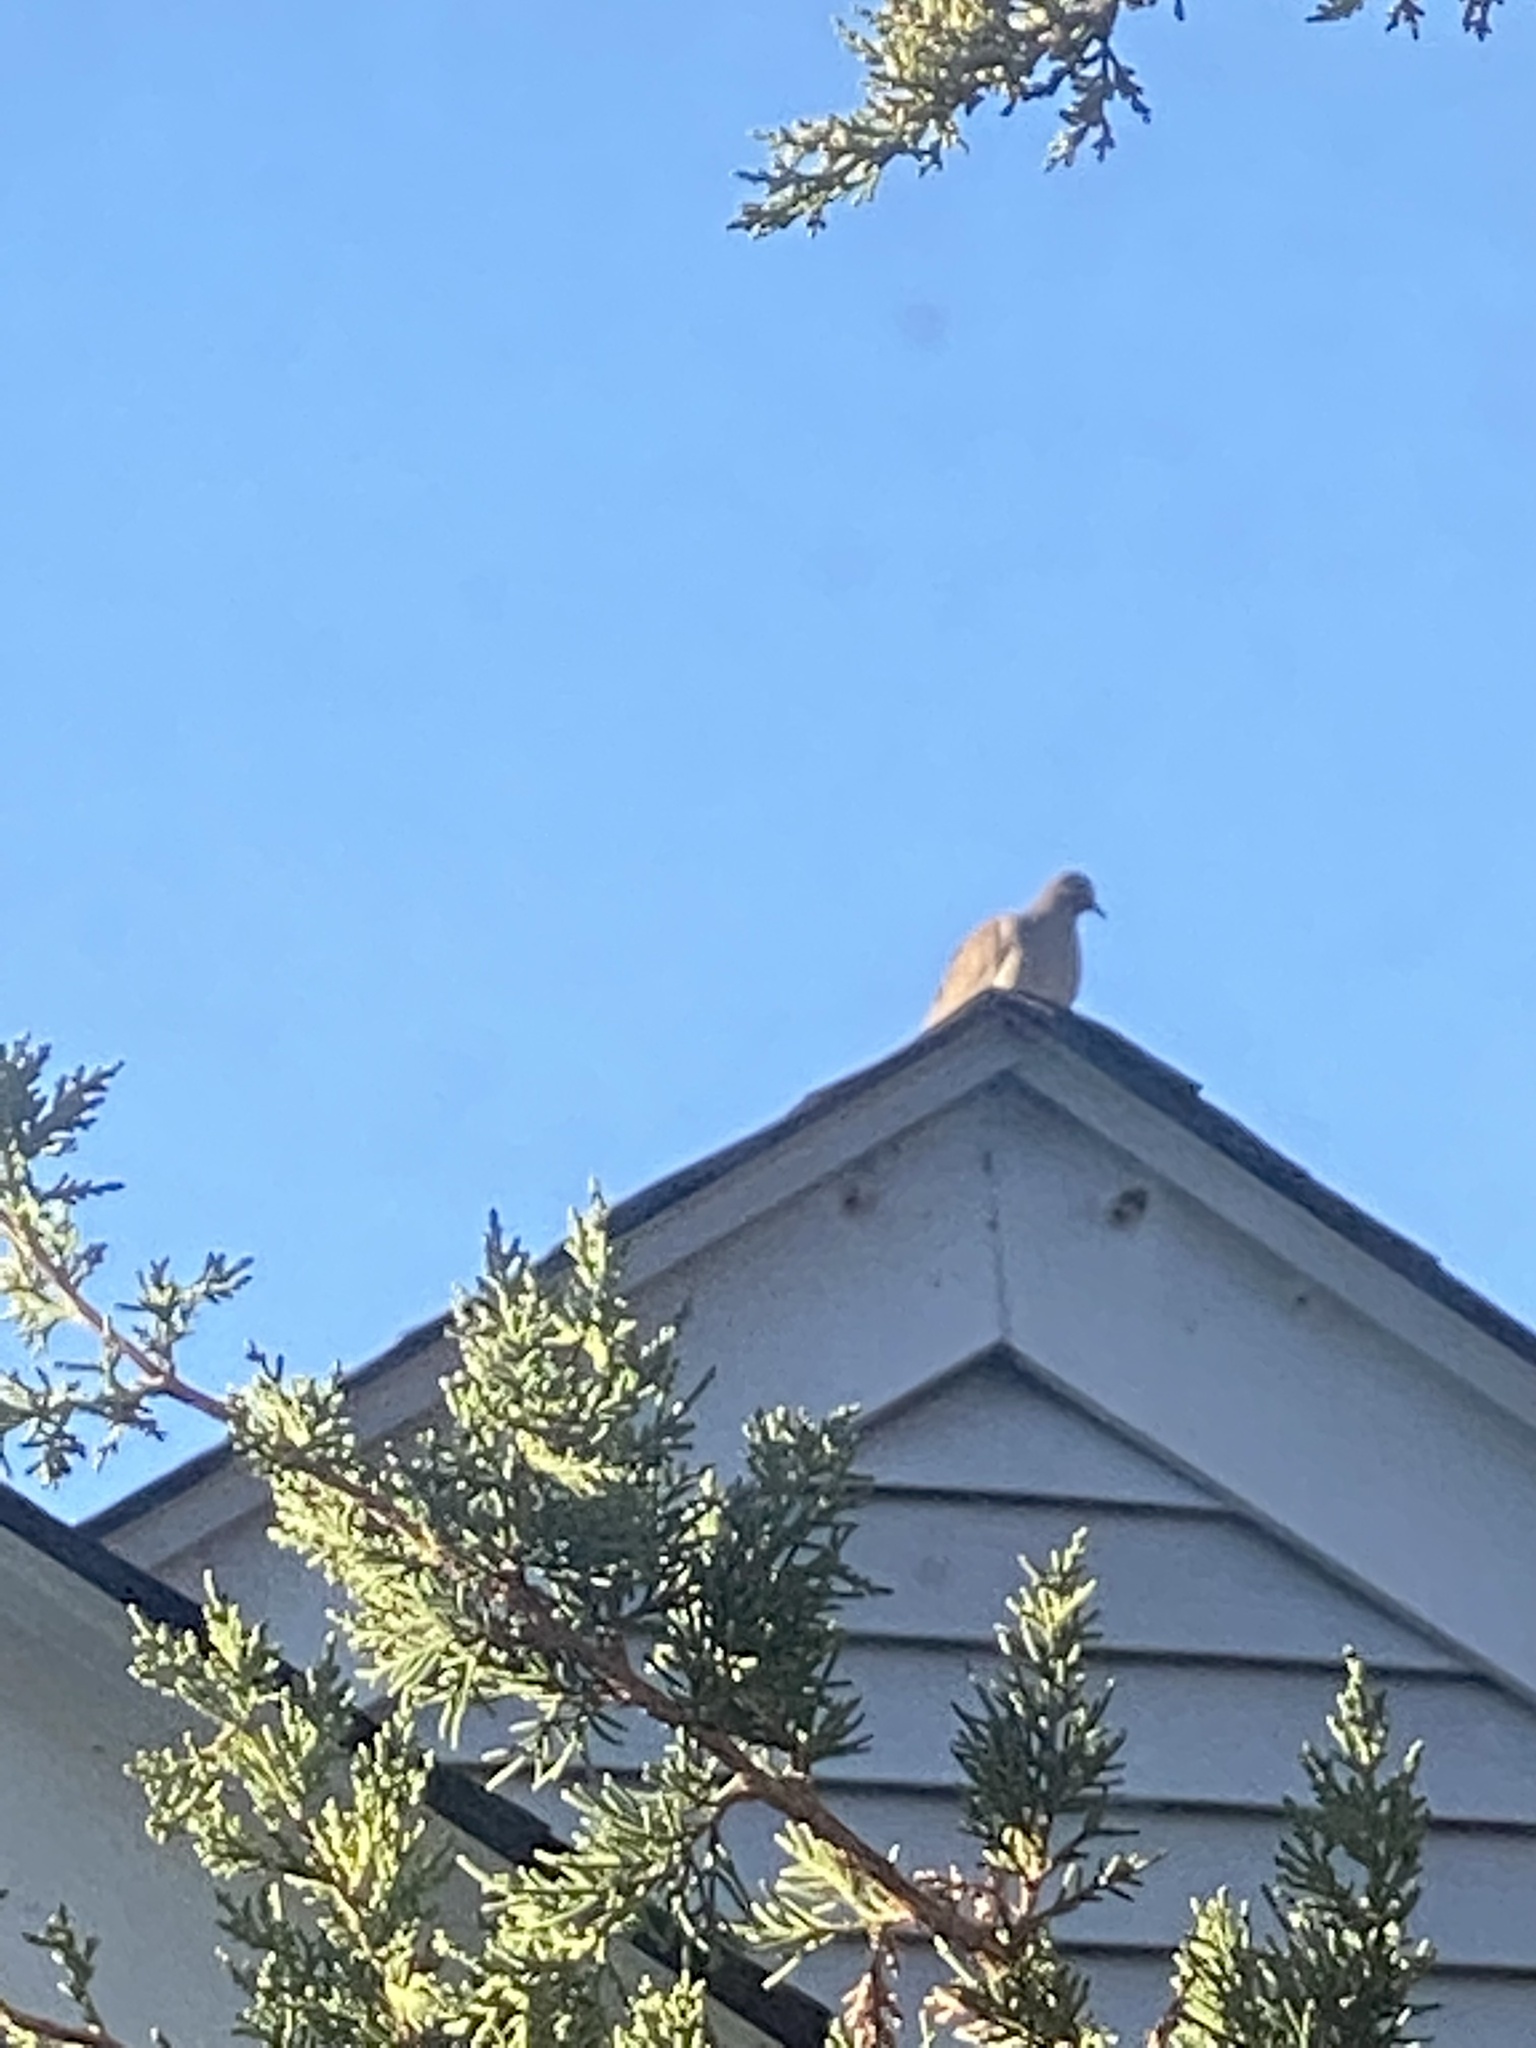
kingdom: Animalia
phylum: Chordata
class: Aves
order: Columbiformes
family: Columbidae
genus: Zenaida
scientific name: Zenaida macroura
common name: Mourning dove
